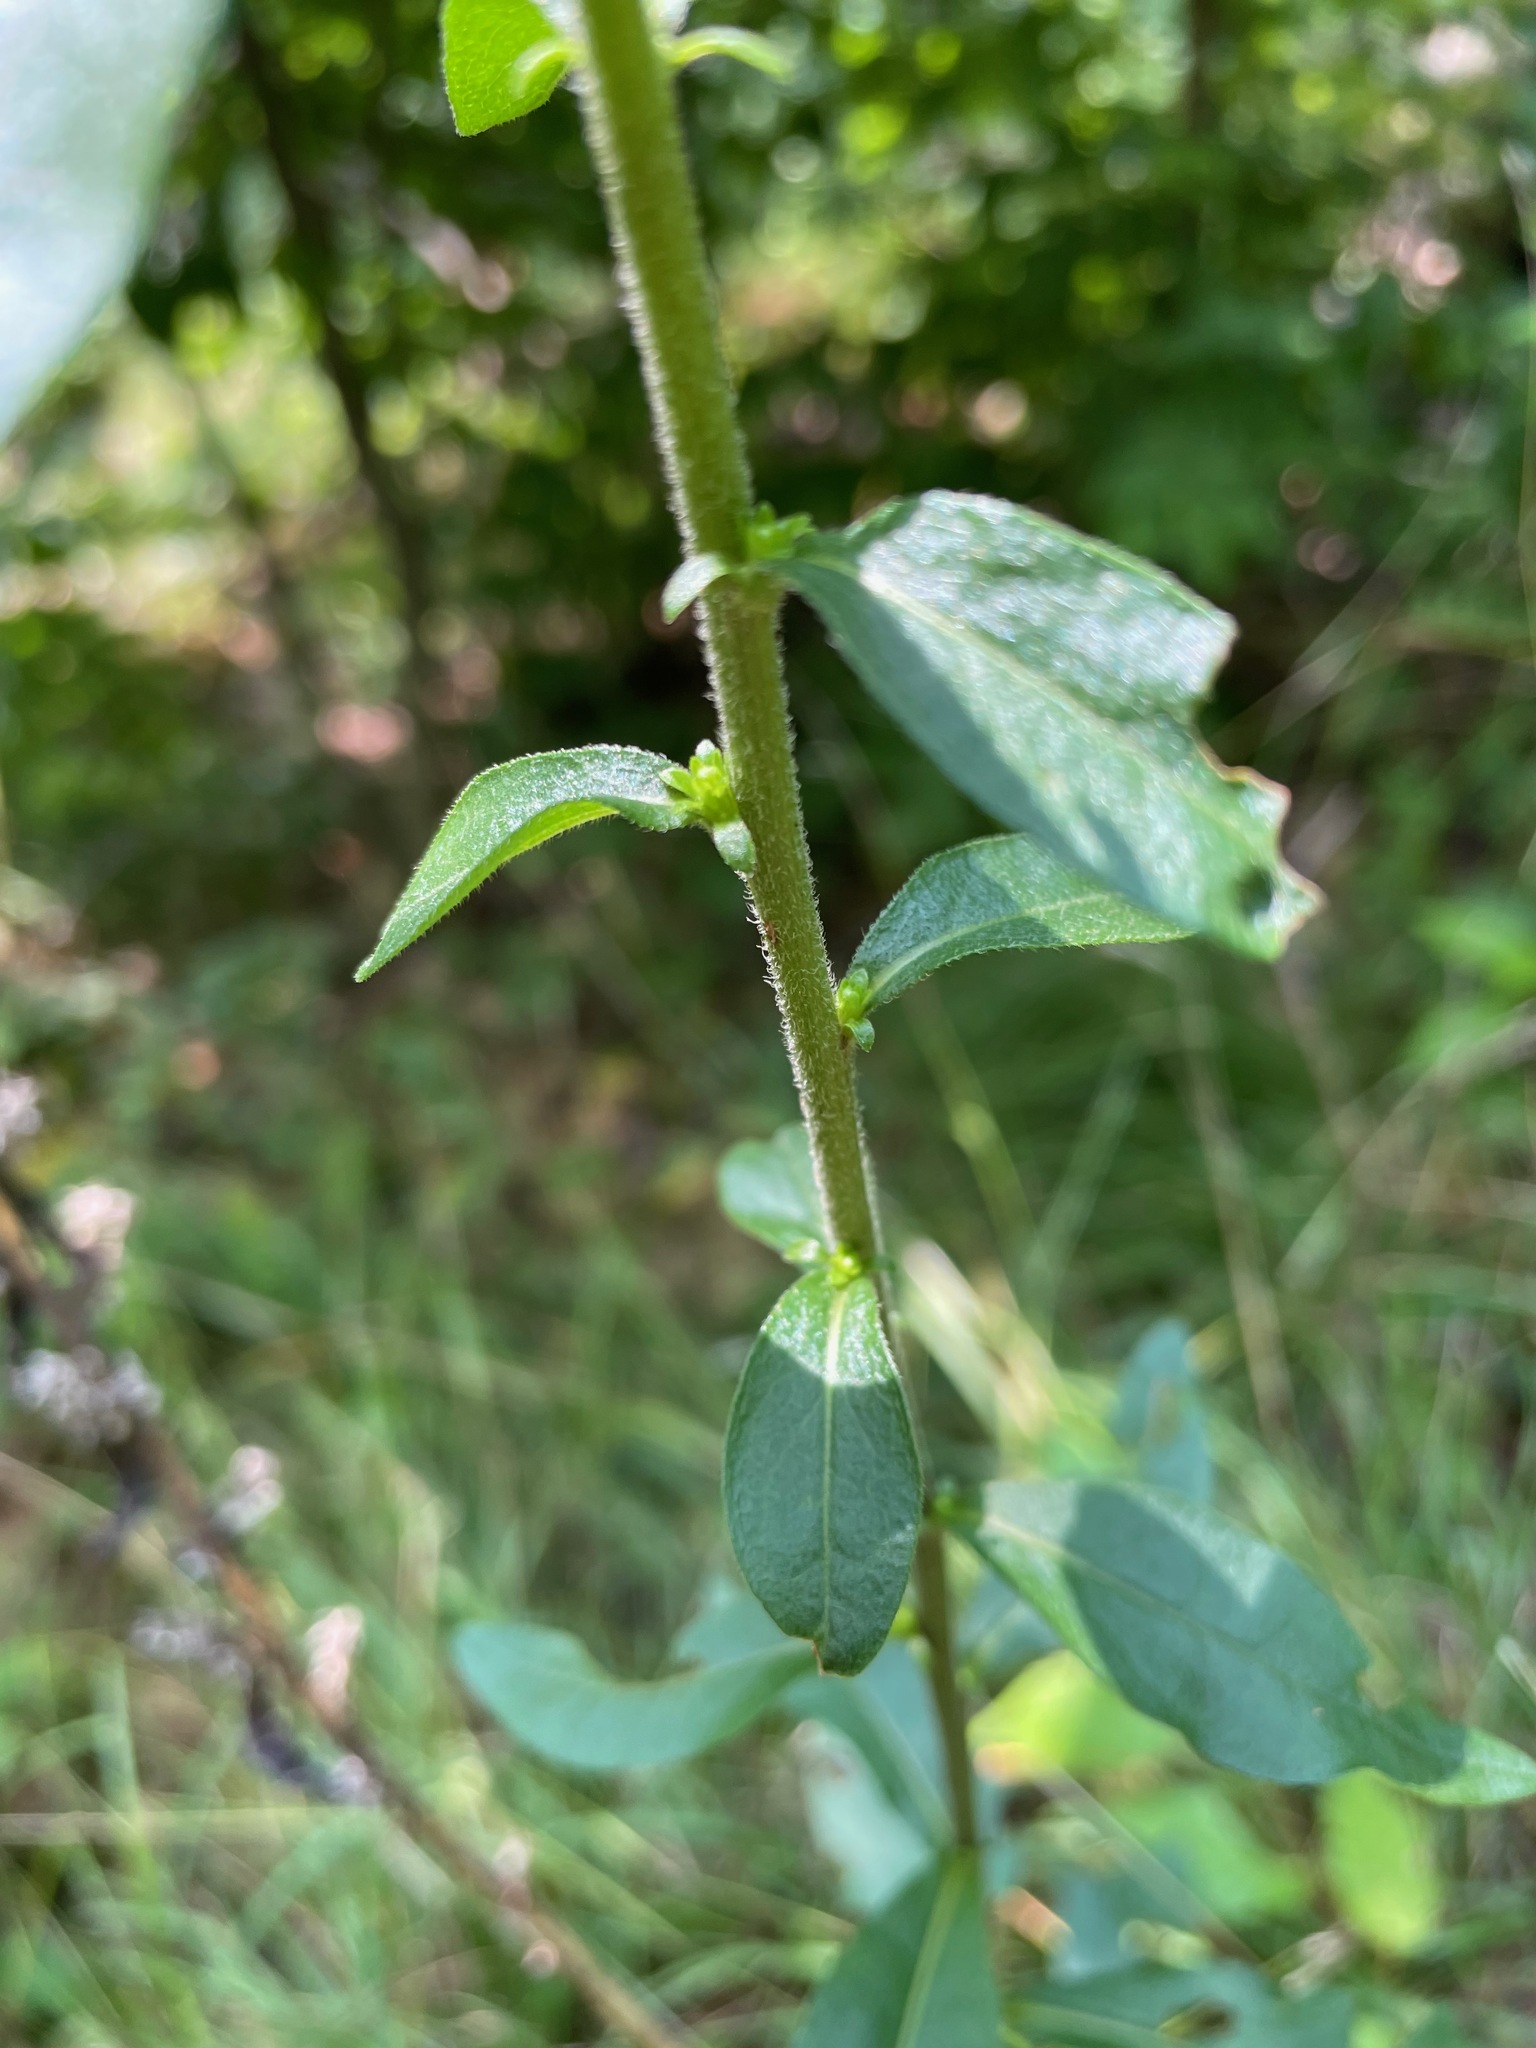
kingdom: Plantae
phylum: Tracheophyta
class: Magnoliopsida
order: Asterales
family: Asteraceae
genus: Solidago
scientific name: Solidago bicolor
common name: Silverrod
